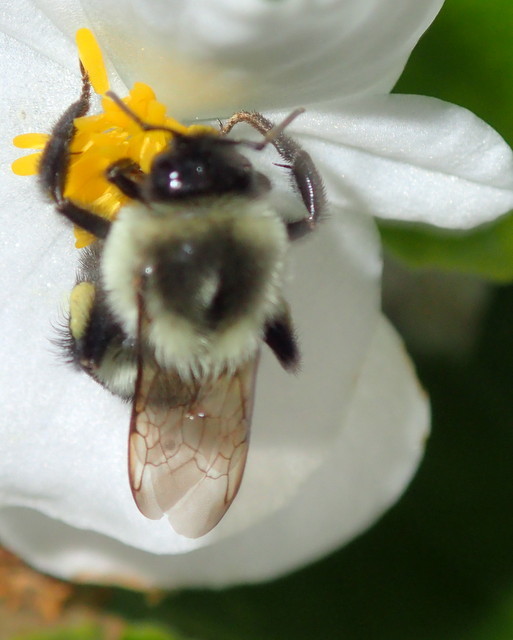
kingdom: Animalia
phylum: Arthropoda
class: Insecta
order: Hymenoptera
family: Apidae
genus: Bombus
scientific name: Bombus impatiens
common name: Common eastern bumble bee
